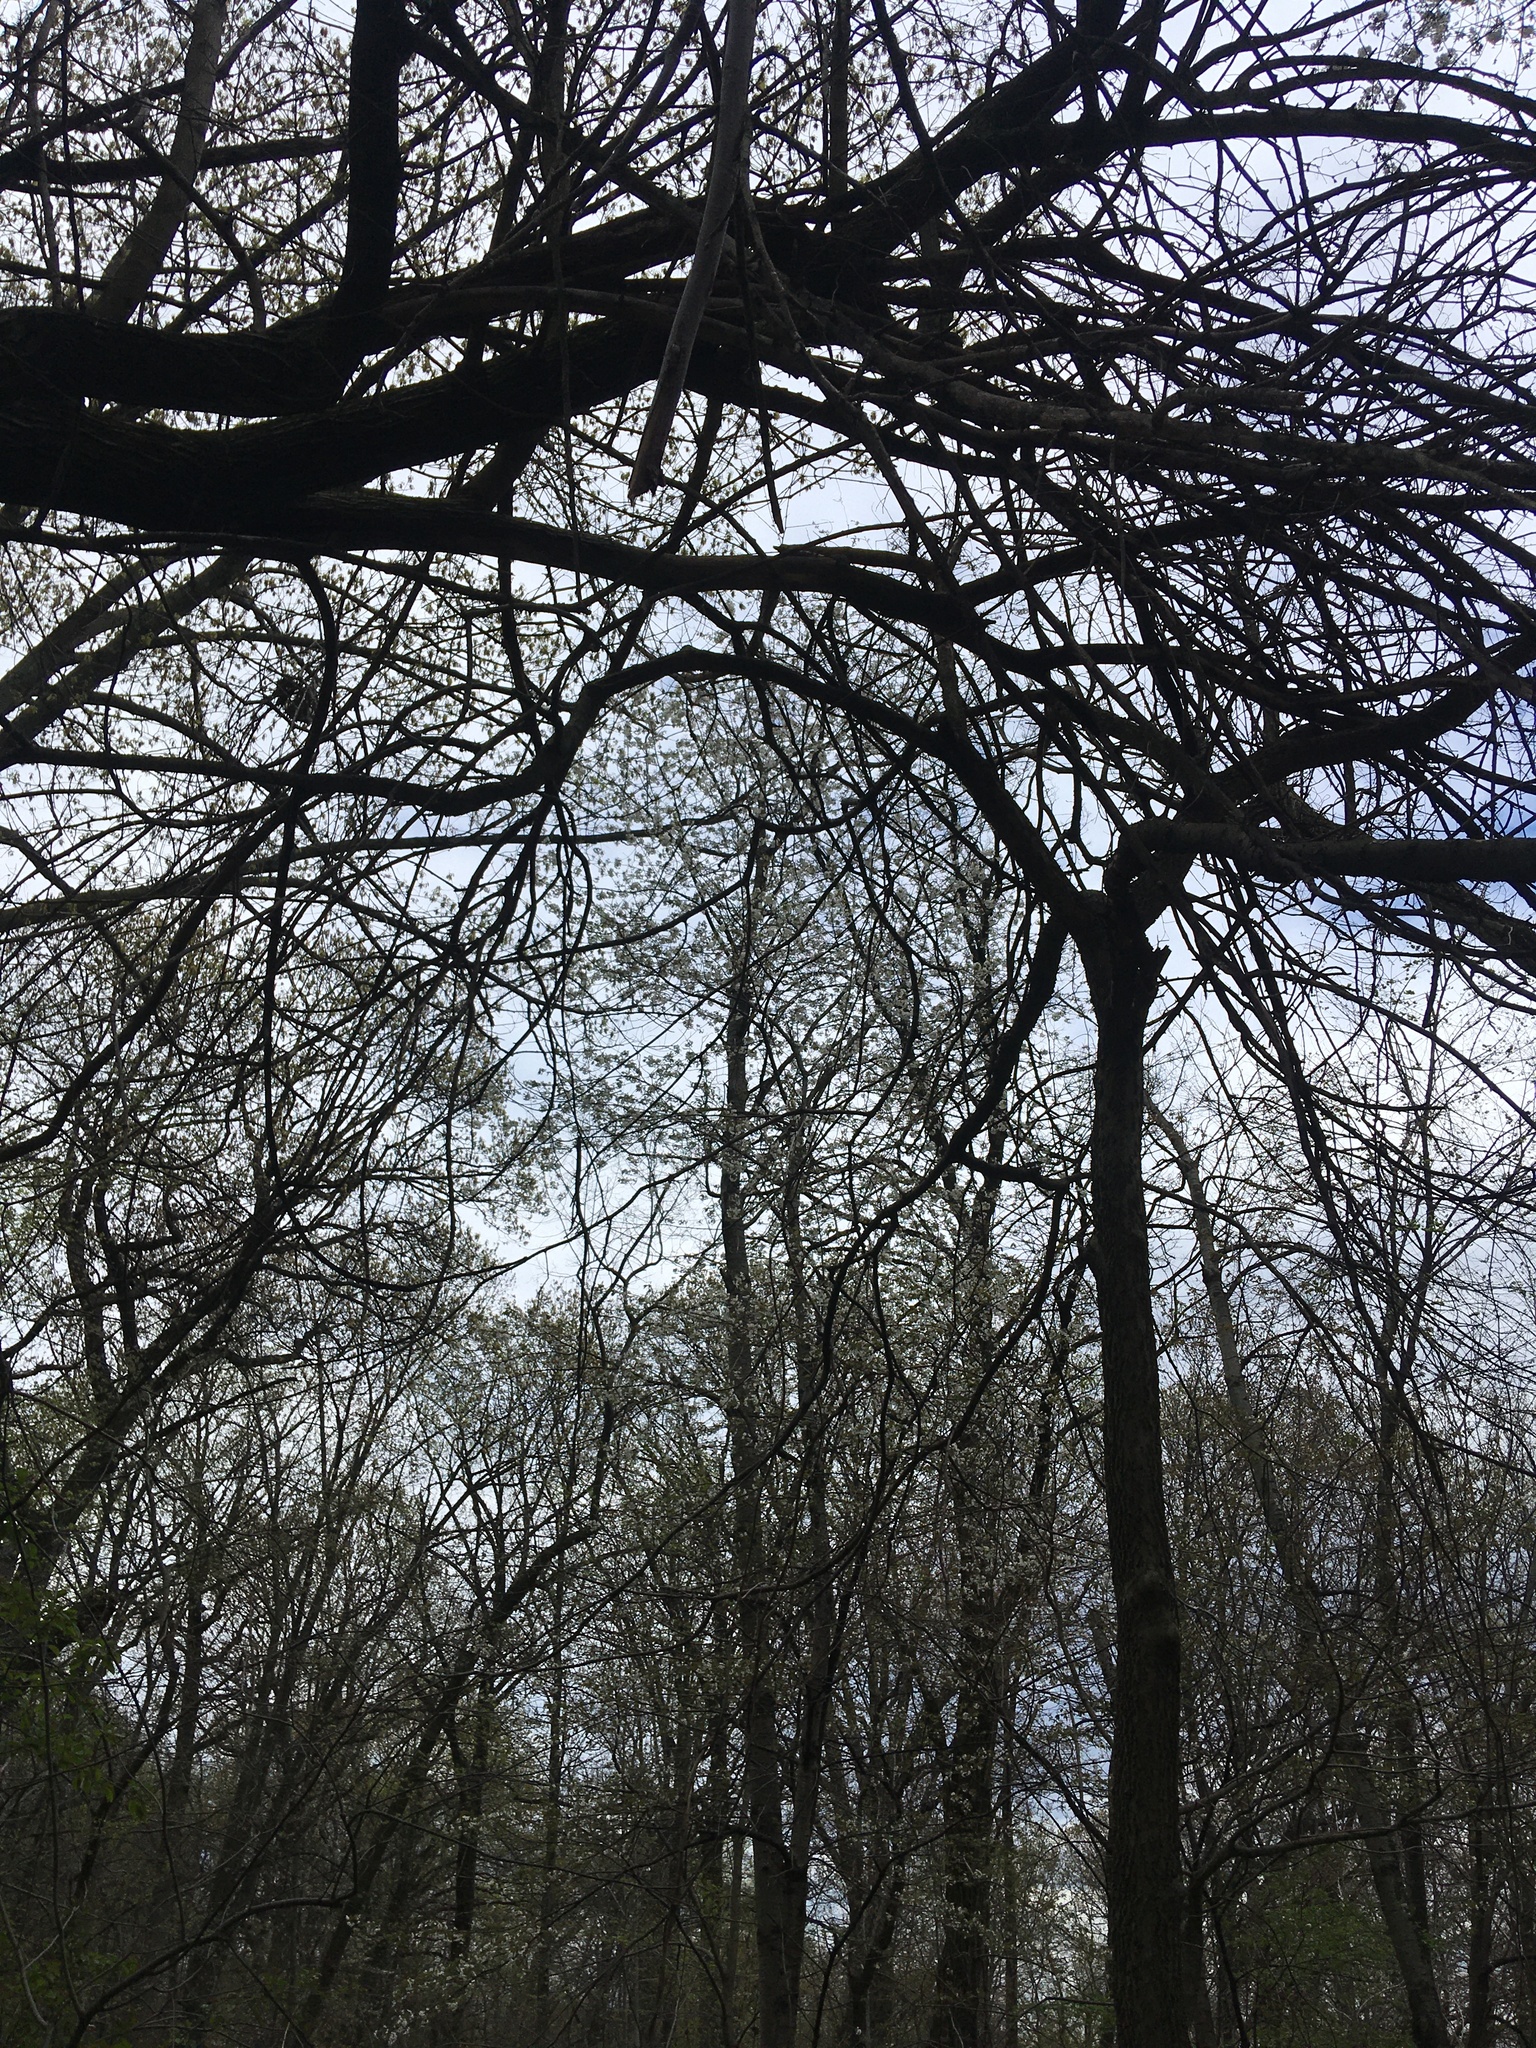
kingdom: Plantae
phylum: Tracheophyta
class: Magnoliopsida
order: Rosales
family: Rosaceae
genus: Prunus
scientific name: Prunus avium
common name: Sweet cherry
